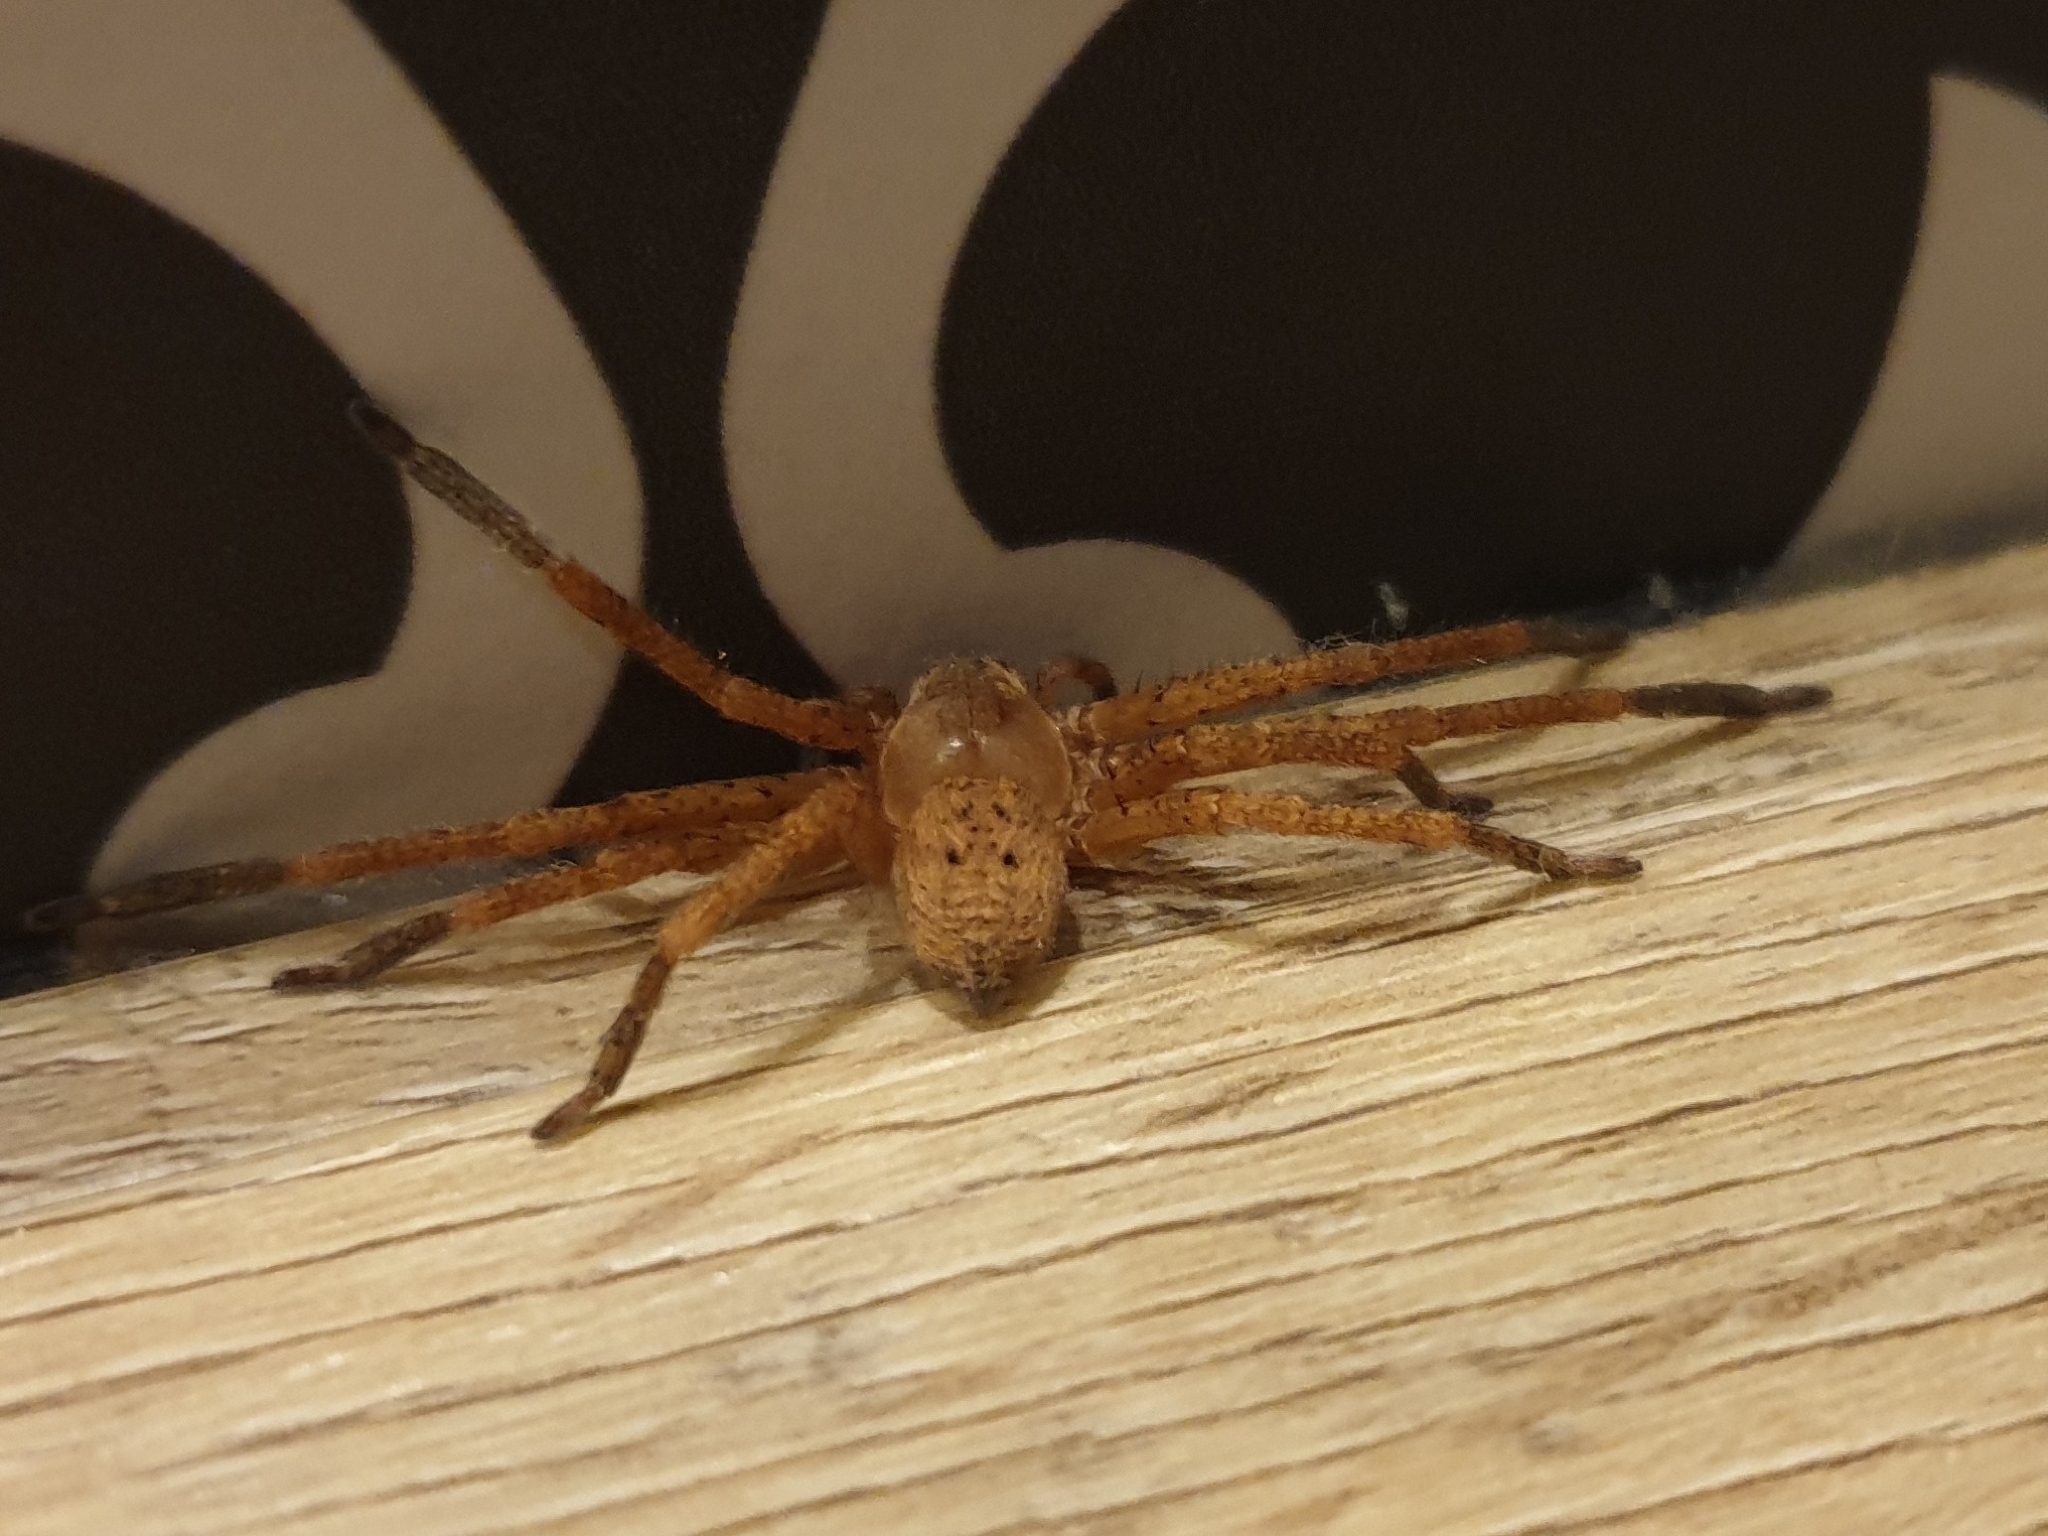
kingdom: Animalia
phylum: Arthropoda
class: Arachnida
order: Araneae
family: Sparassidae
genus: Olios
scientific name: Olios argelasius
